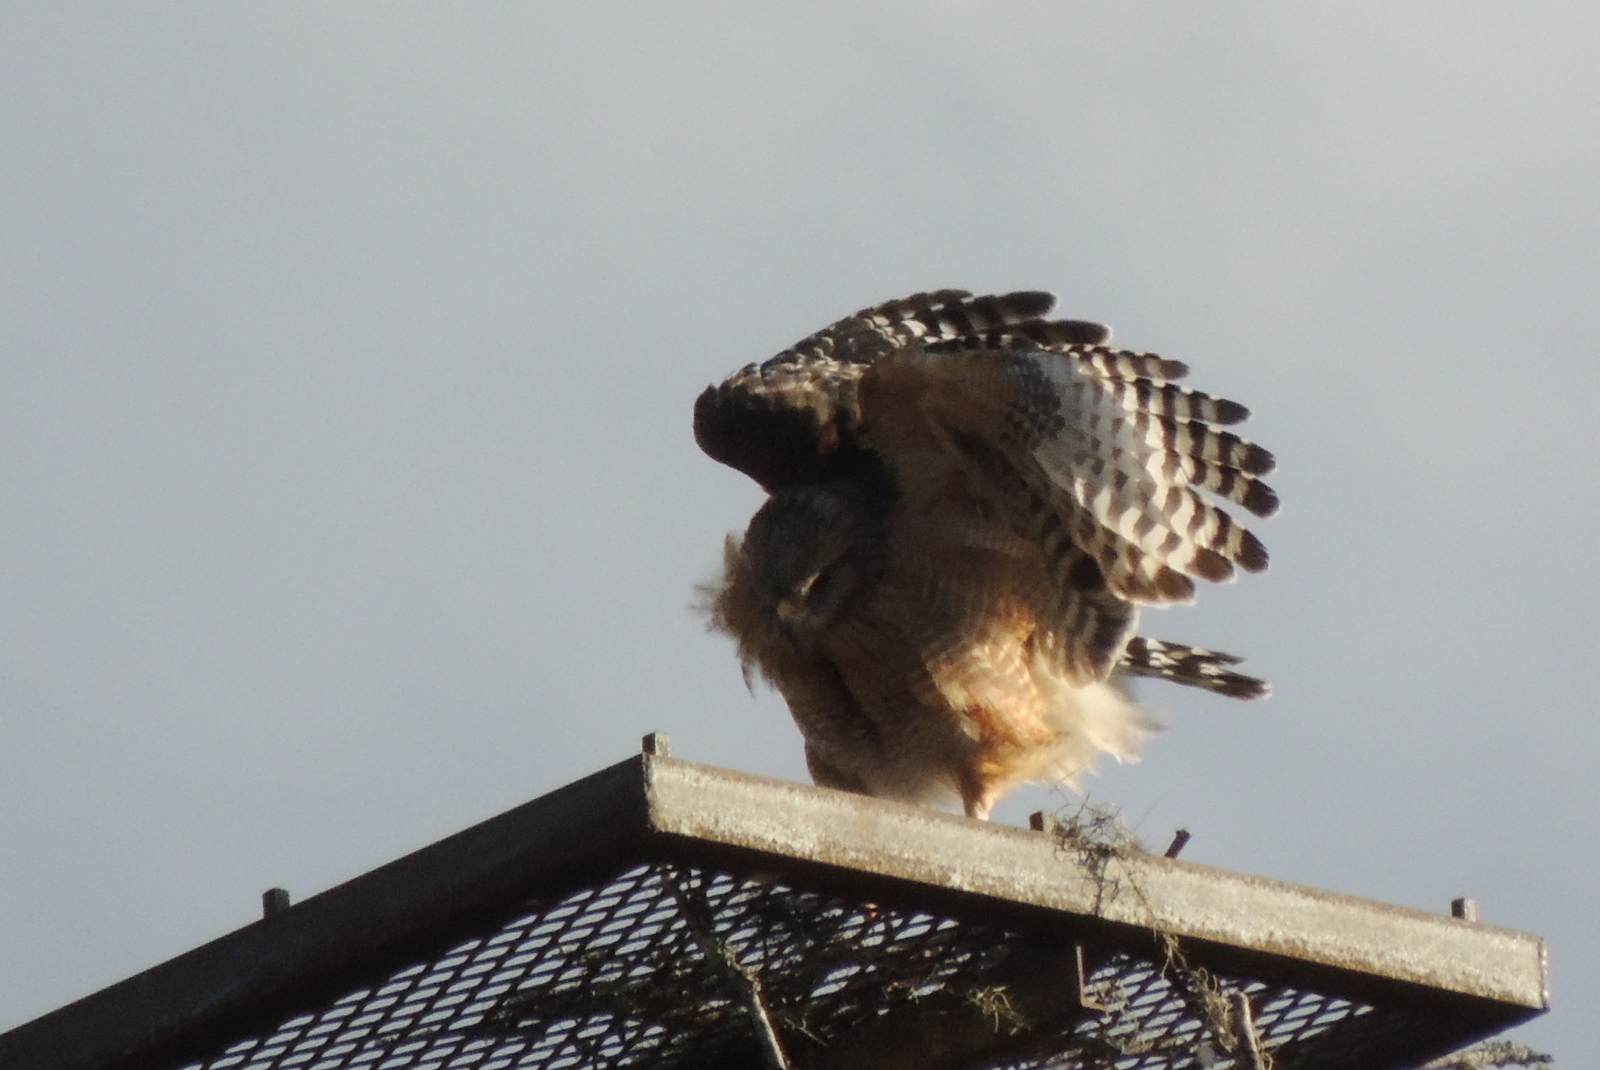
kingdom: Animalia
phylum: Chordata
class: Aves
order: Accipitriformes
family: Accipitridae
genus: Buteo
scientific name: Buteo lineatus
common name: Red-shouldered hawk
